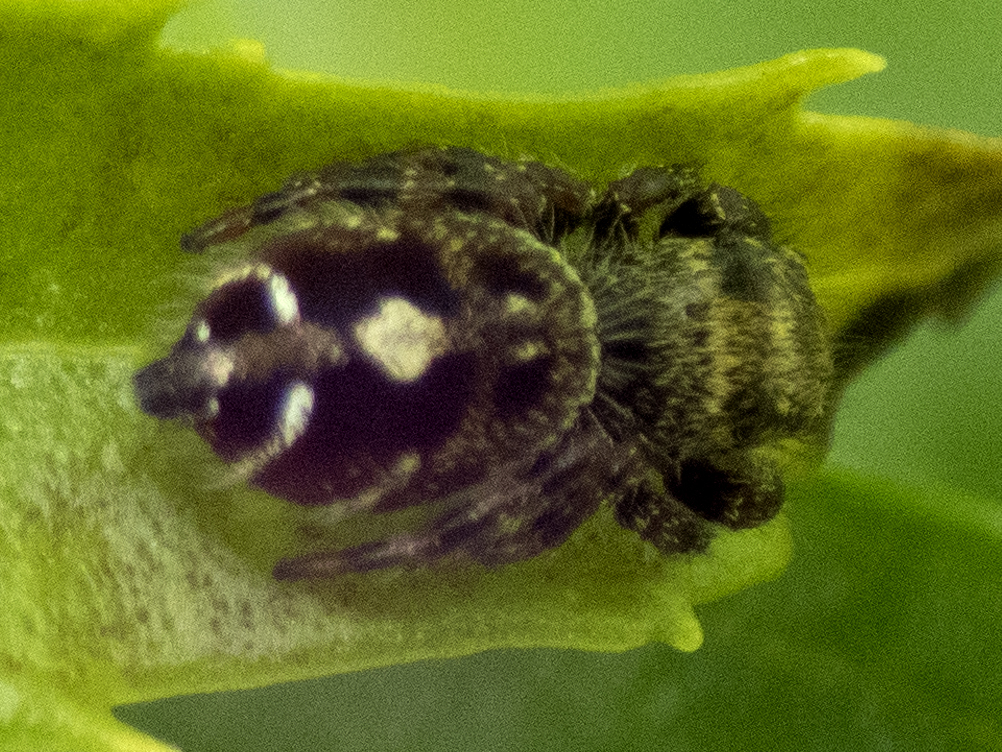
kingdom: Animalia
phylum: Arthropoda
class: Arachnida
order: Araneae
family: Salticidae
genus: Phidippus
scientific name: Phidippus audax
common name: Bold jumper
